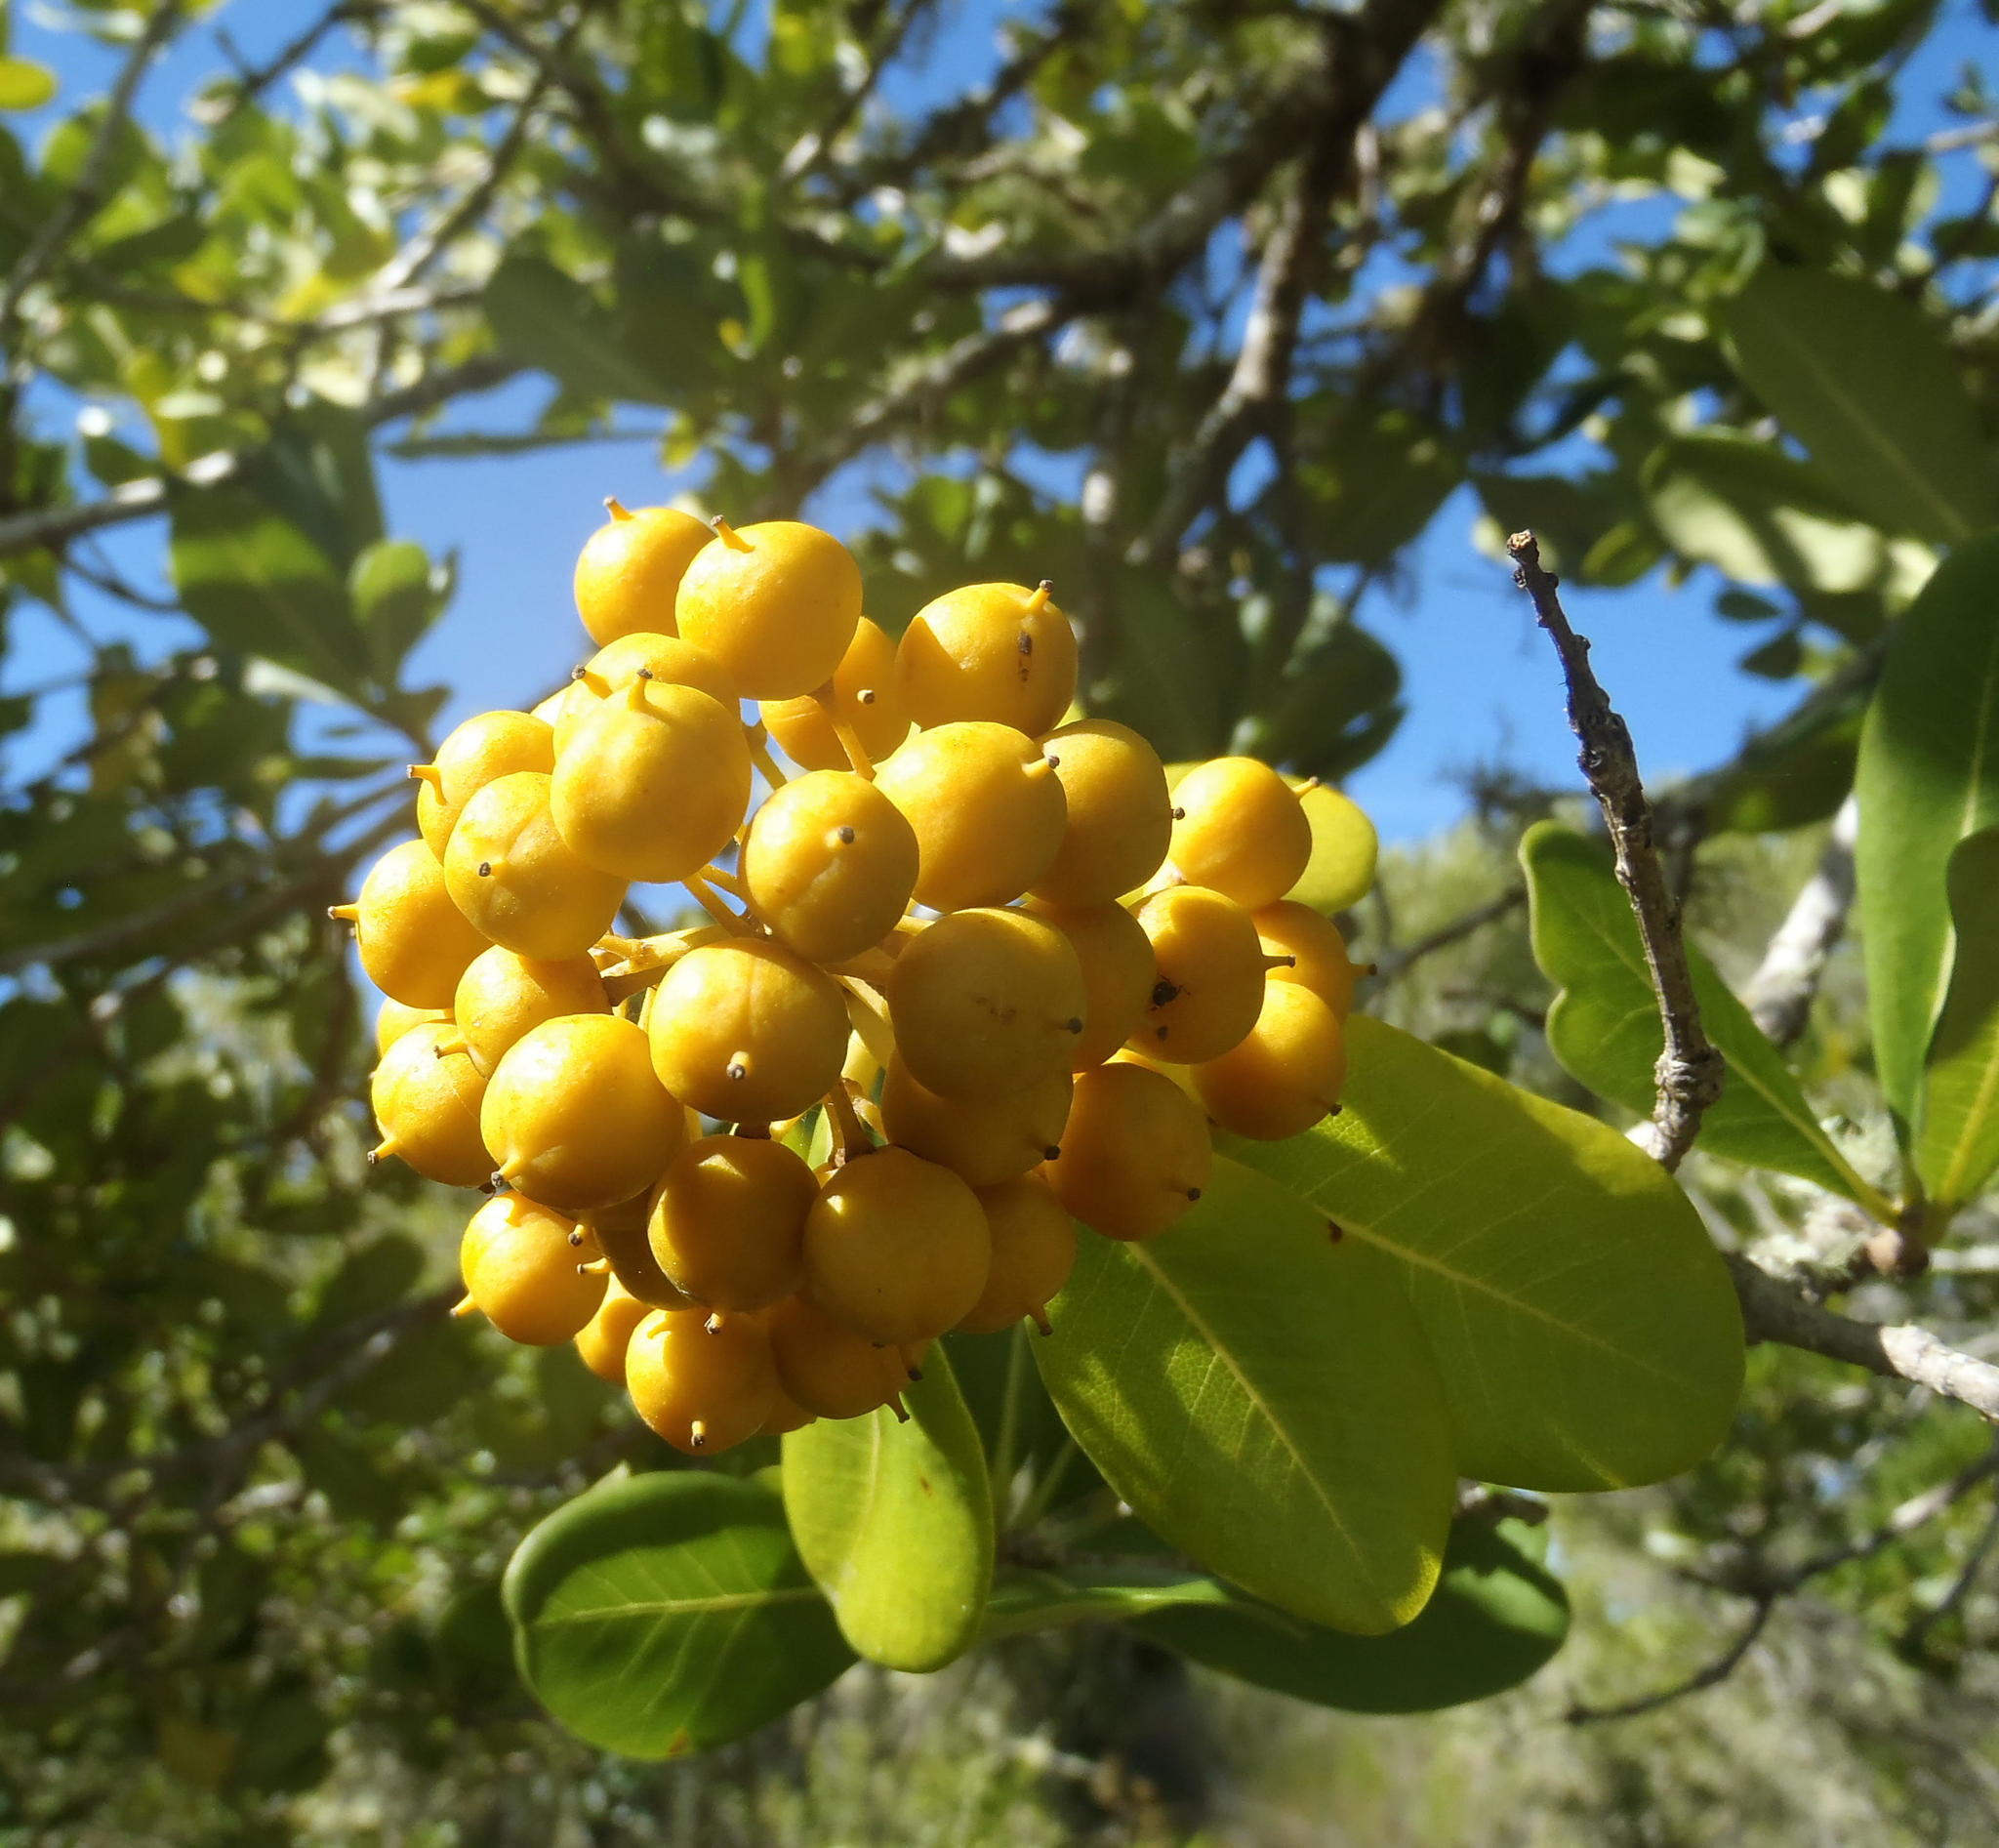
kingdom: Plantae
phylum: Tracheophyta
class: Magnoliopsida
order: Apiales
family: Pittosporaceae
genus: Pittosporum
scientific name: Pittosporum viridiflorum
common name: Cape cheesewood
